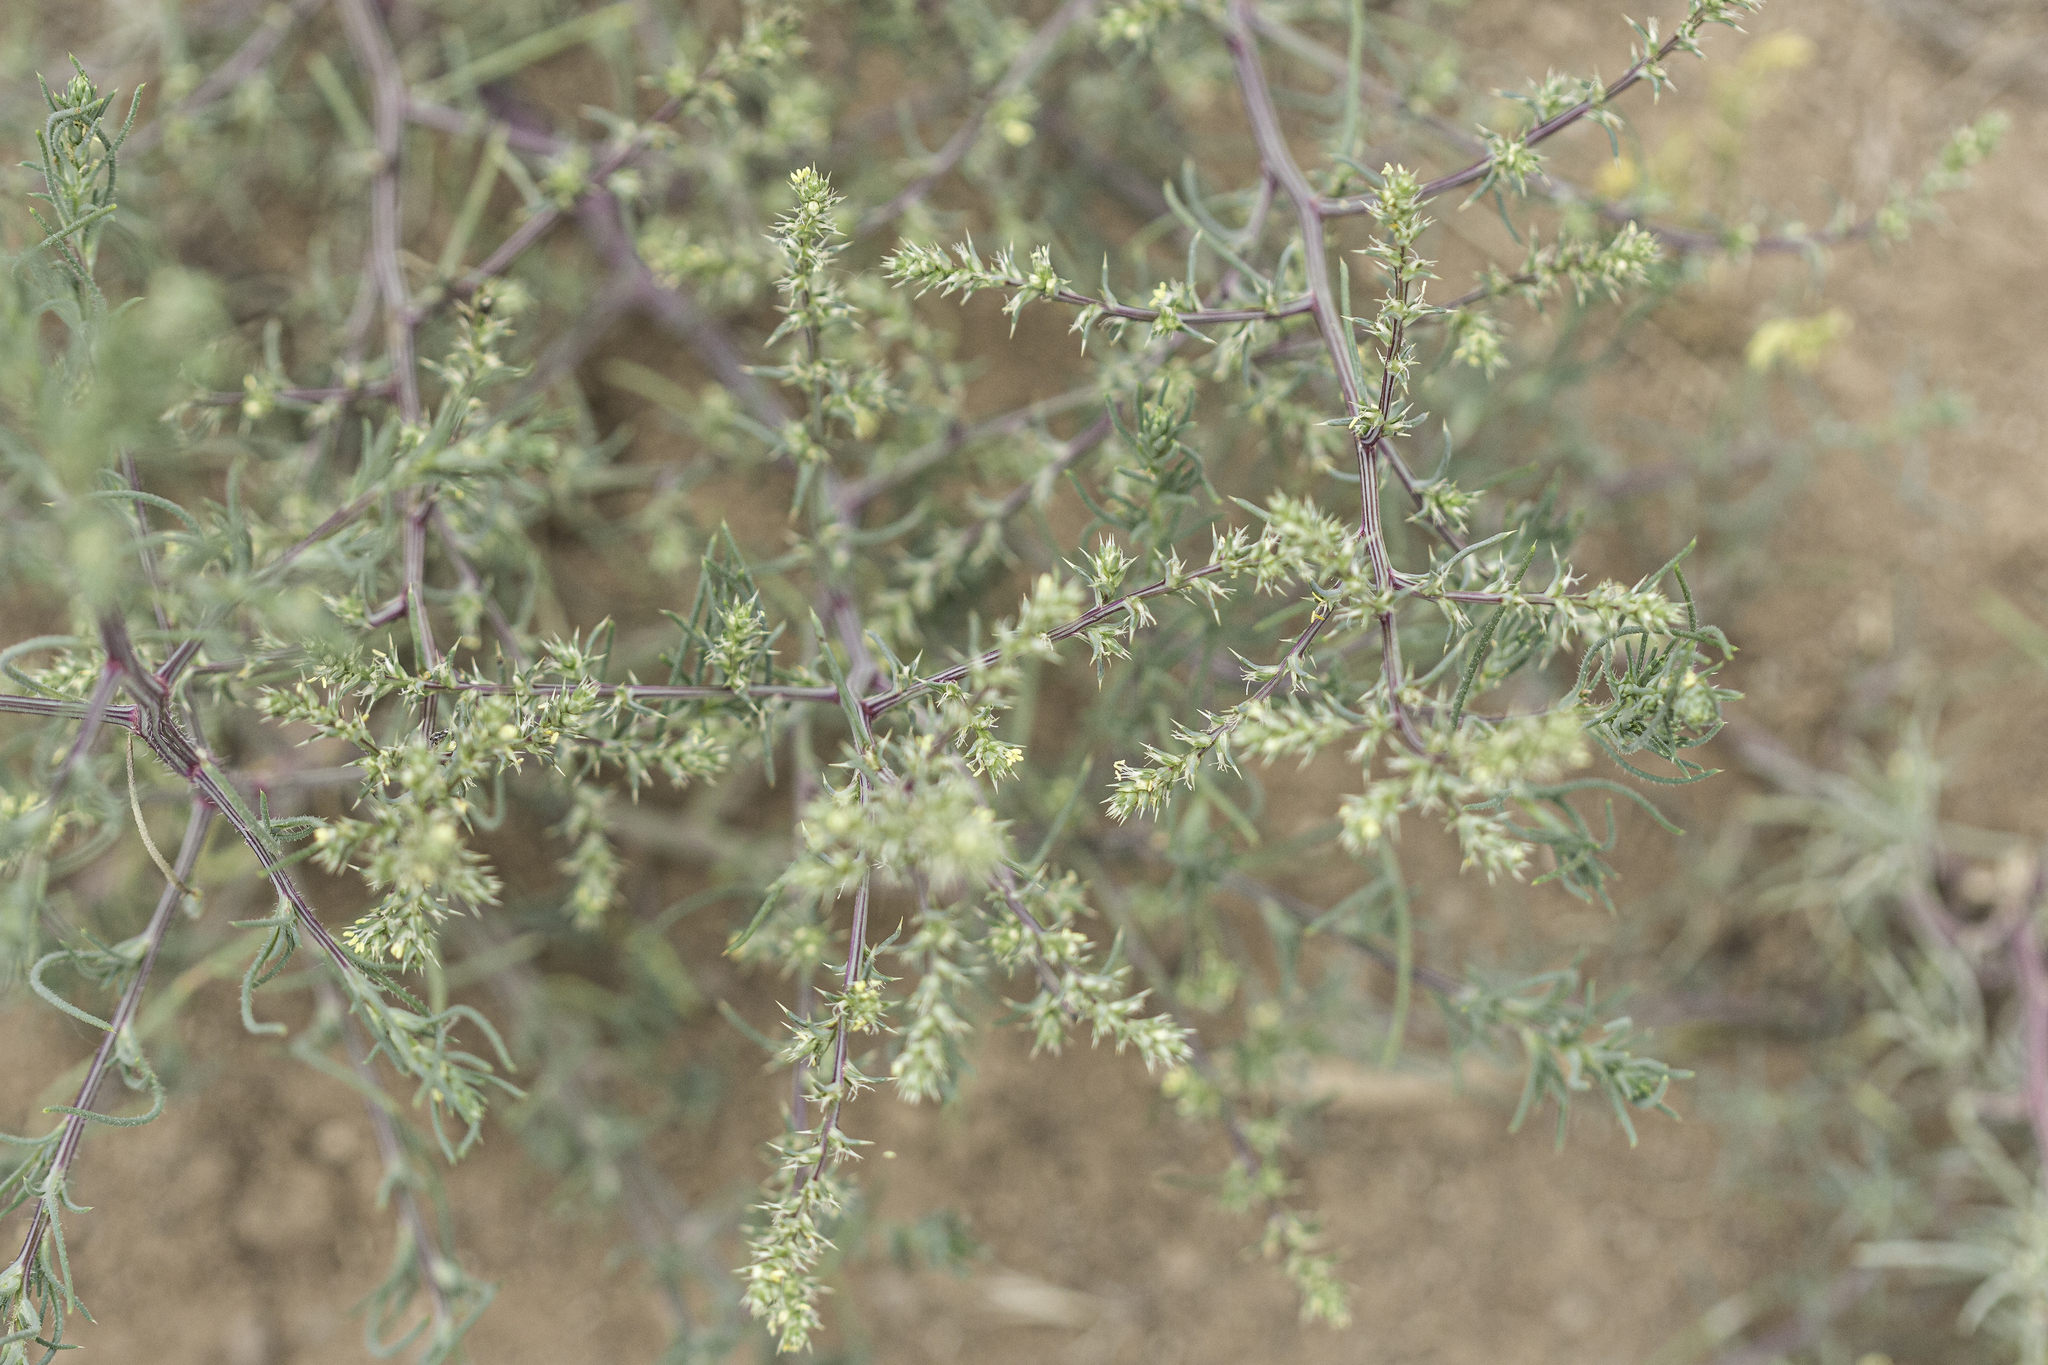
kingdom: Plantae
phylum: Tracheophyta
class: Magnoliopsida
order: Caryophyllales
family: Amaranthaceae
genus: Salsola
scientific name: Salsola collina
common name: Tumbleweed
